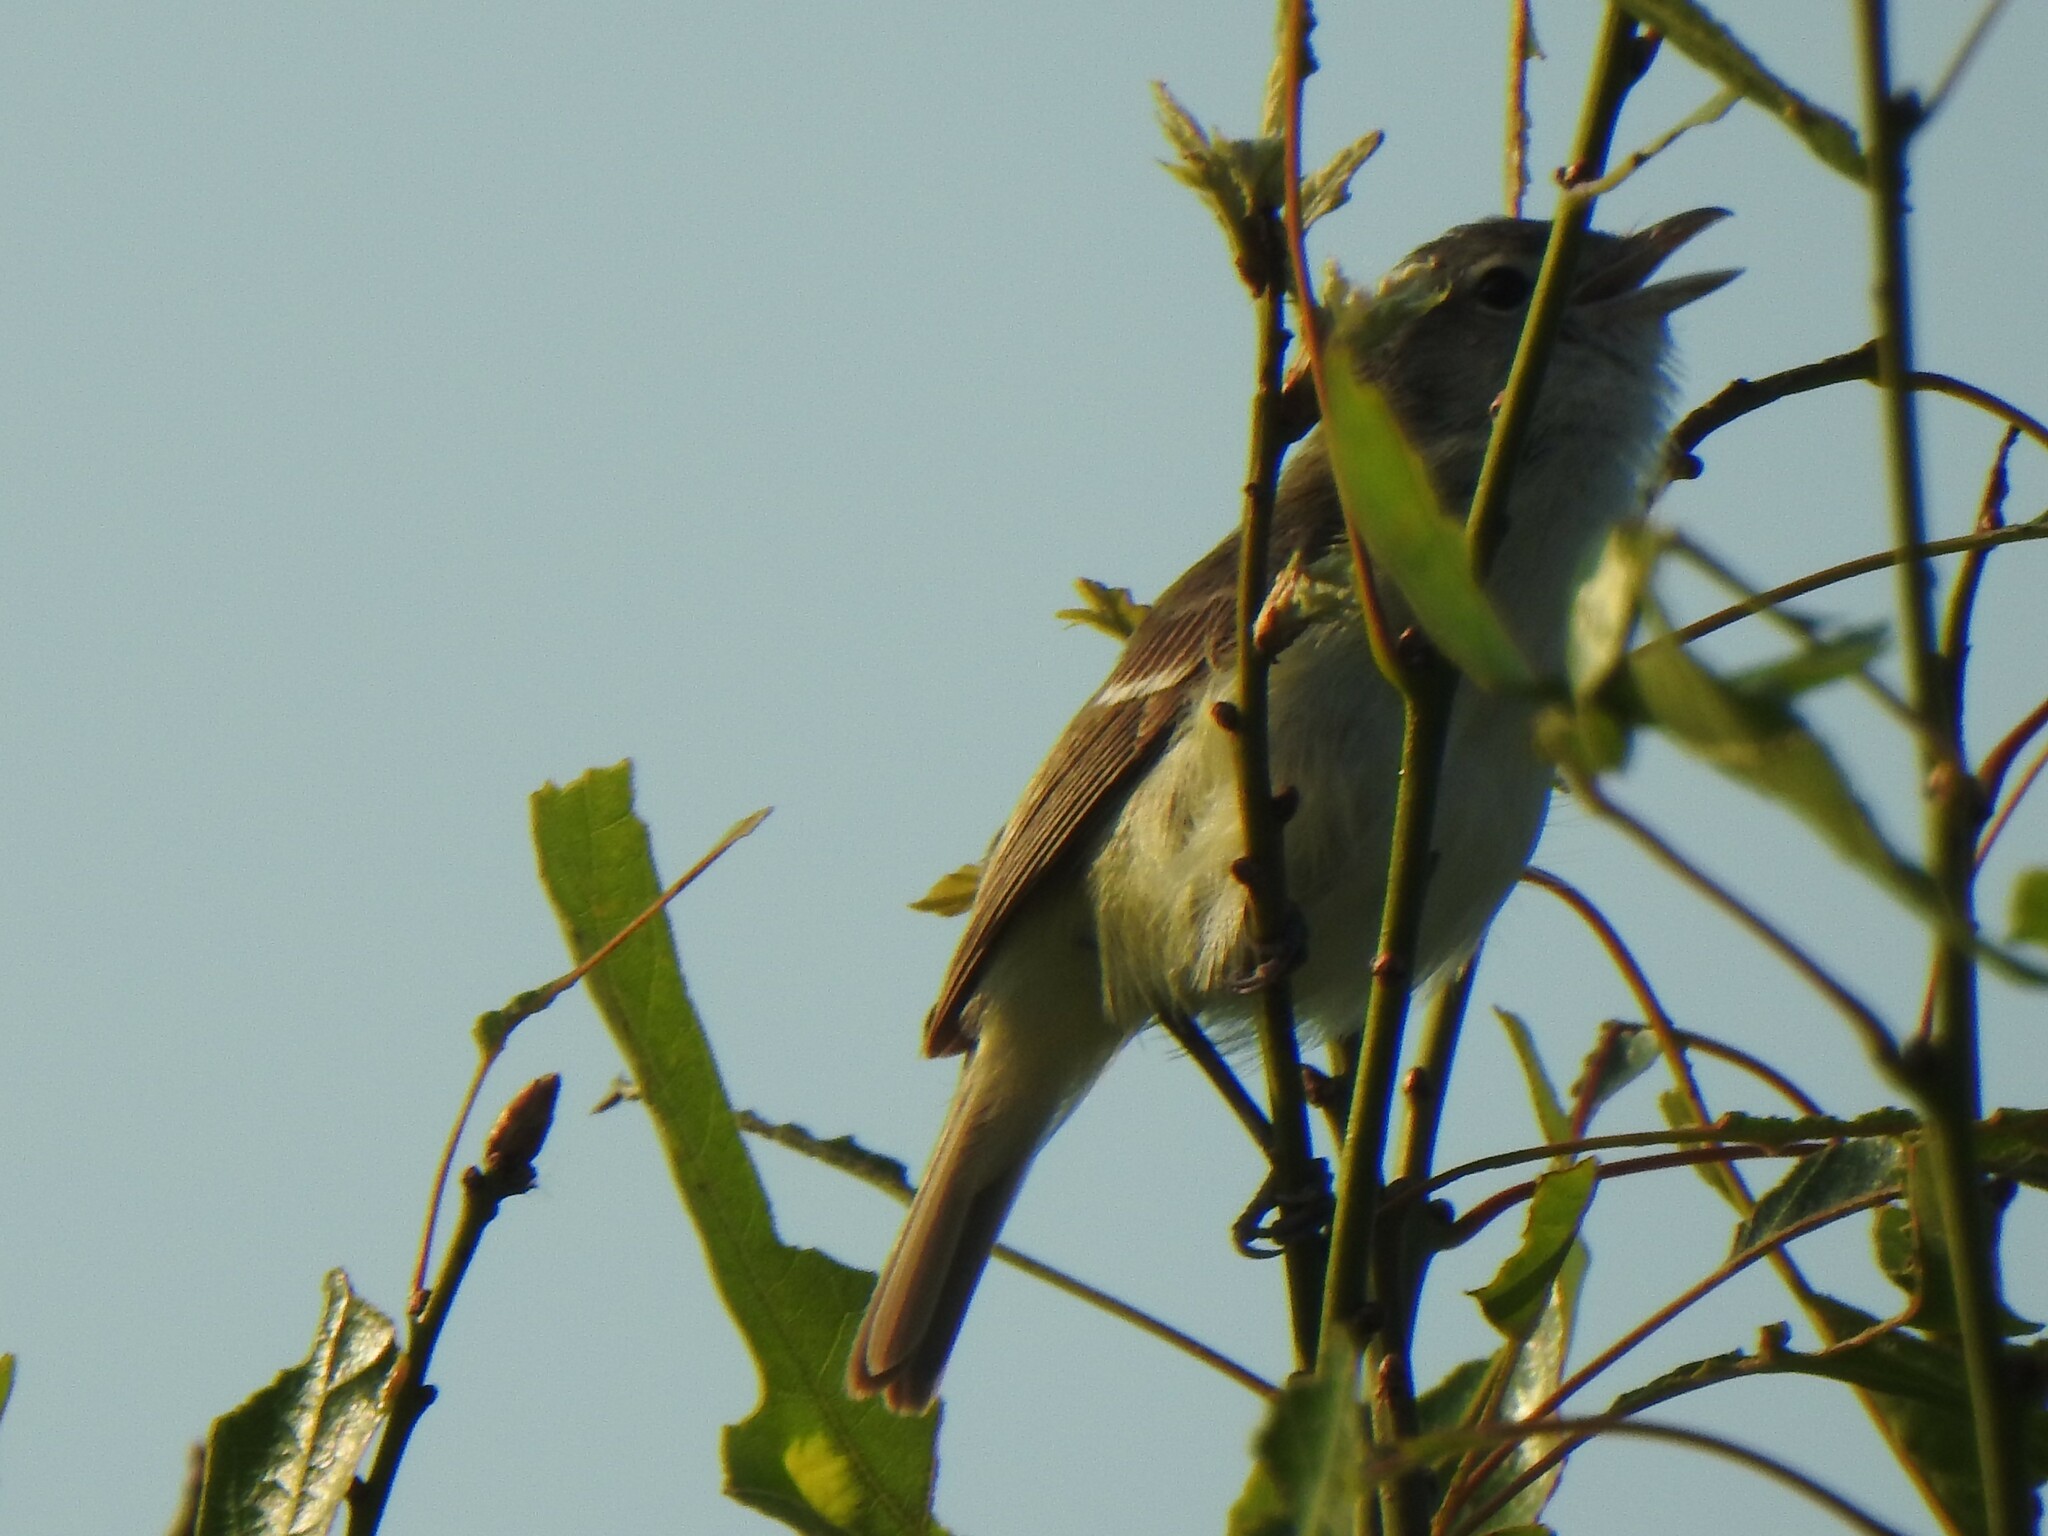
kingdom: Animalia
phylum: Chordata
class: Aves
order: Passeriformes
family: Vireonidae
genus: Vireo
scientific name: Vireo bellii
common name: Bell's vireo
